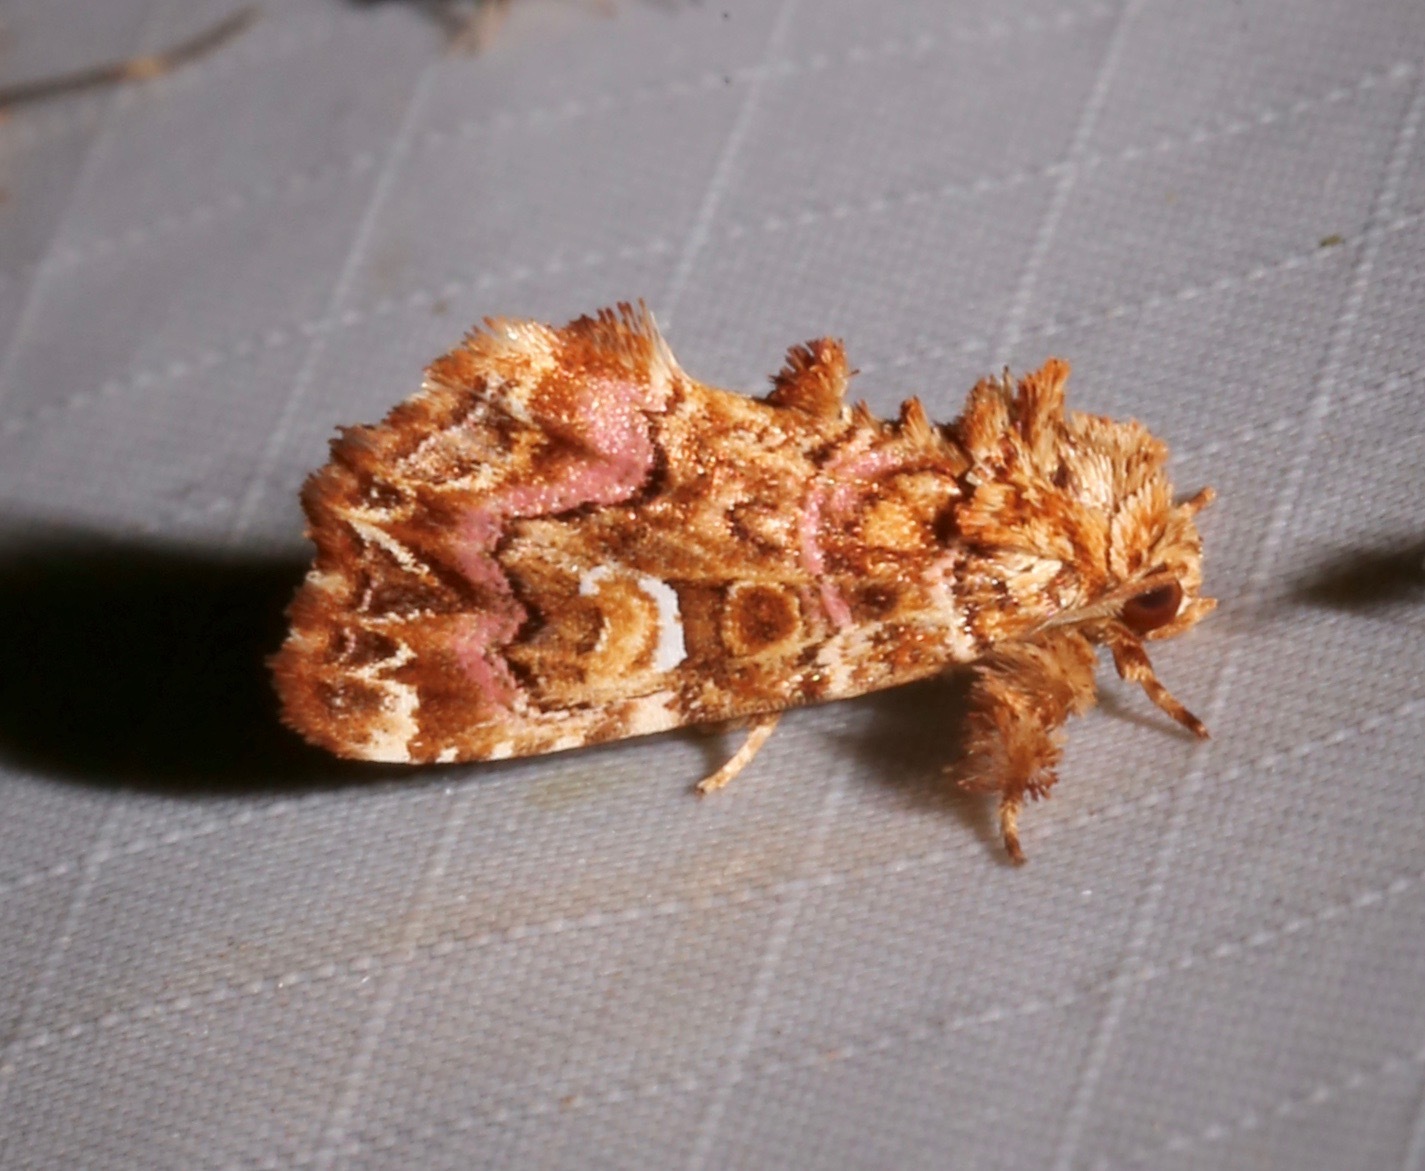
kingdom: Animalia
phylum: Arthropoda
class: Insecta
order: Lepidoptera
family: Noctuidae
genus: Callopistria
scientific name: Callopistria mollissima
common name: Pink-shaded fern moth
